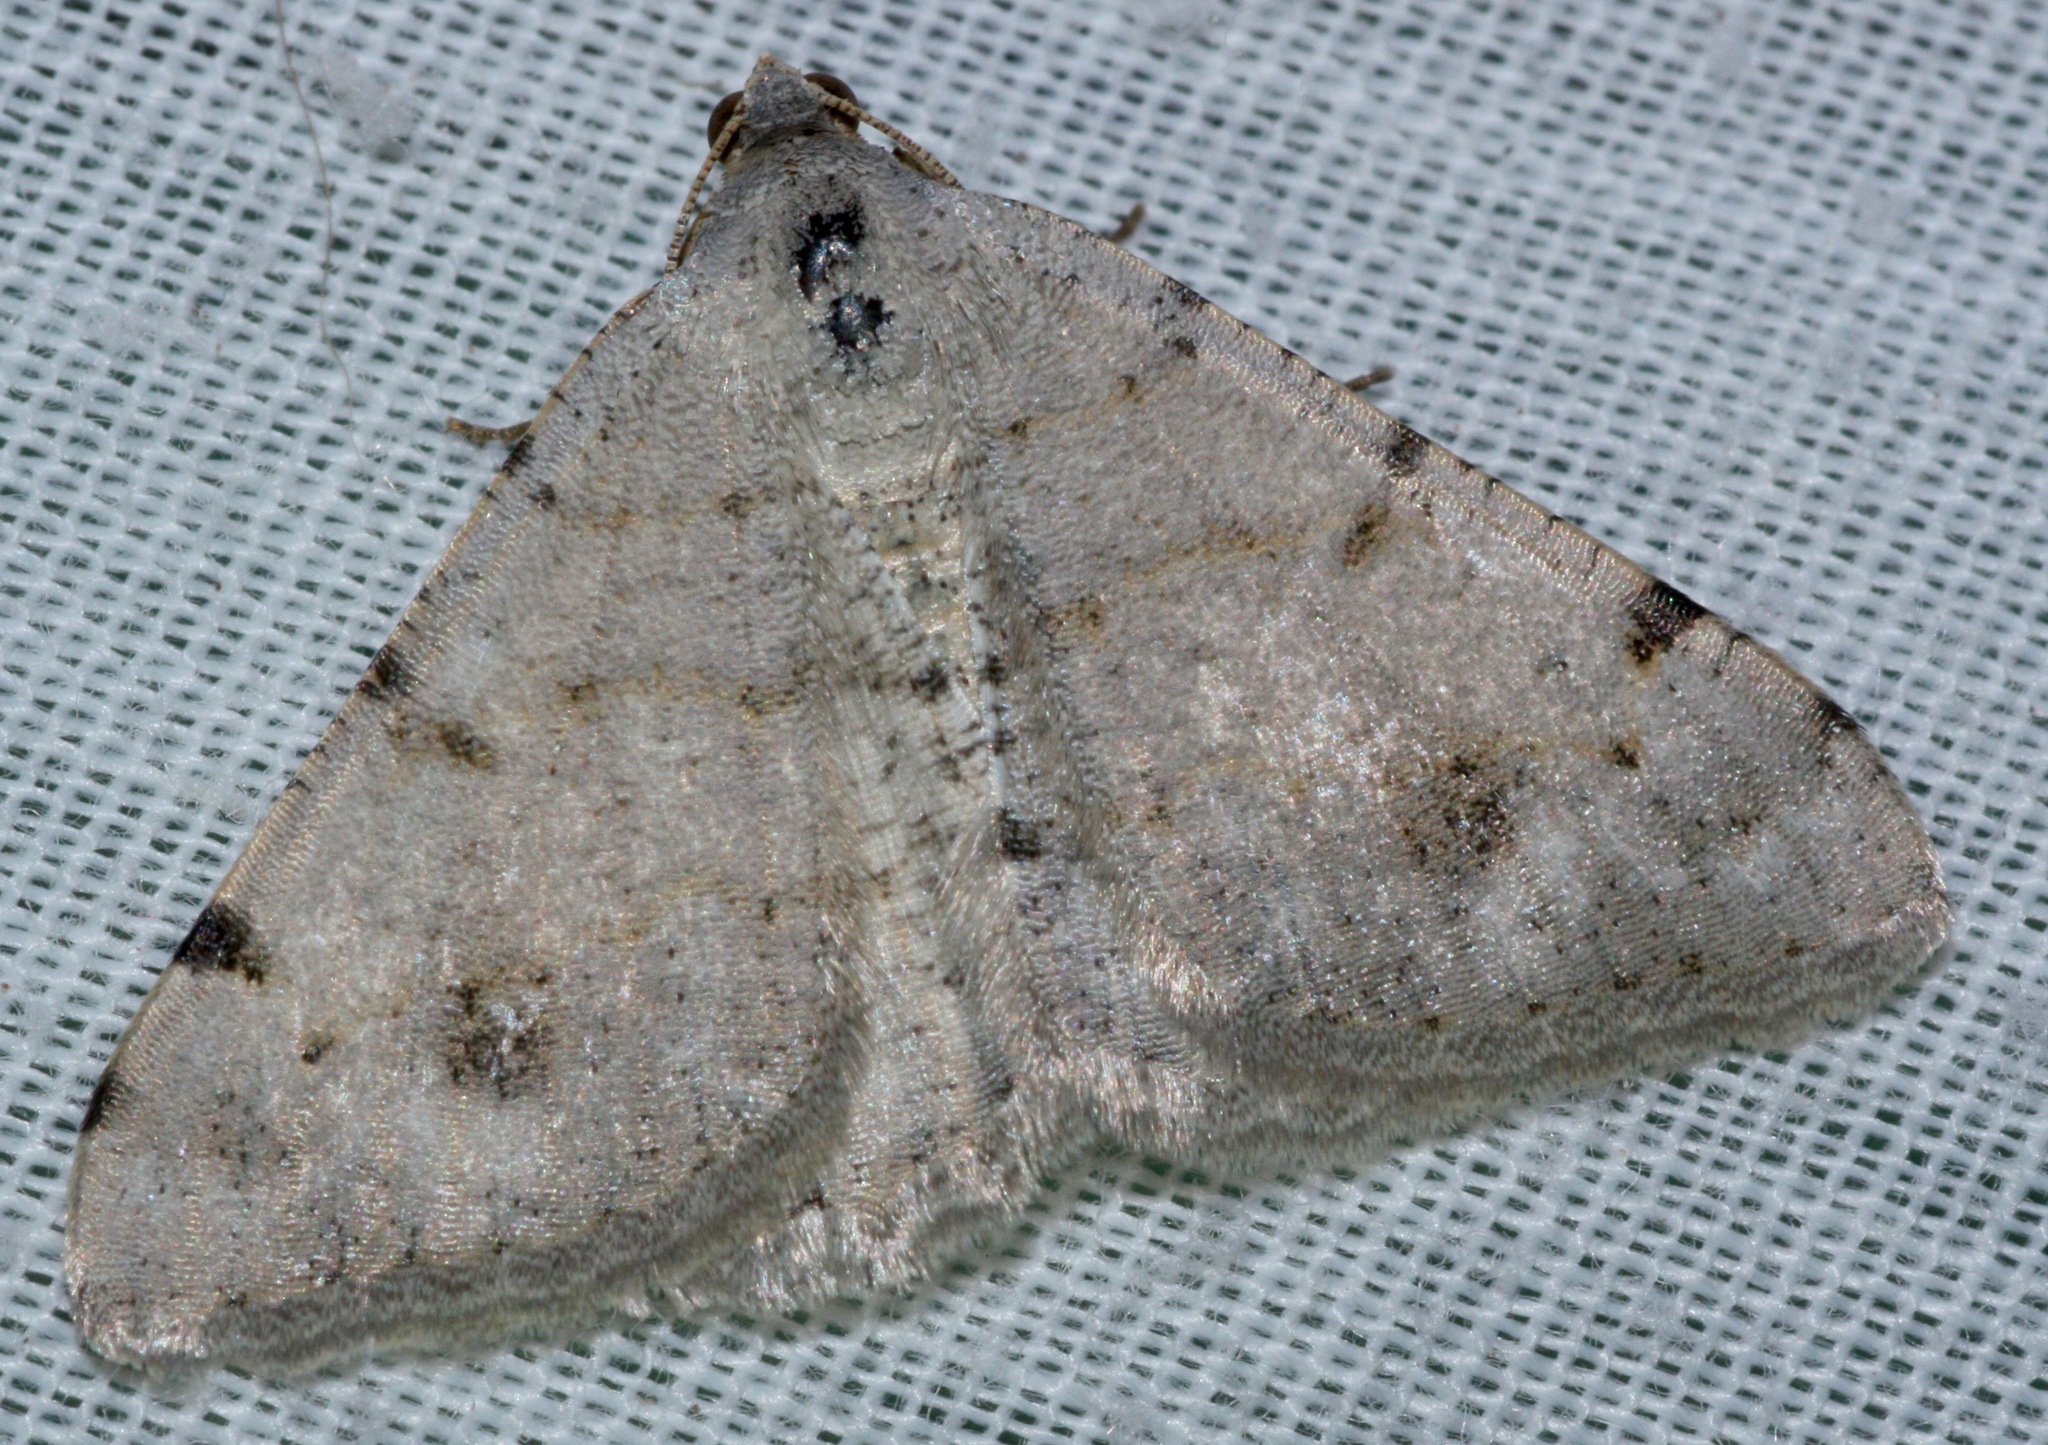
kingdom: Animalia
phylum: Arthropoda
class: Insecta
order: Lepidoptera
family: Geometridae
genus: Digrammia
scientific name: Digrammia colorata
